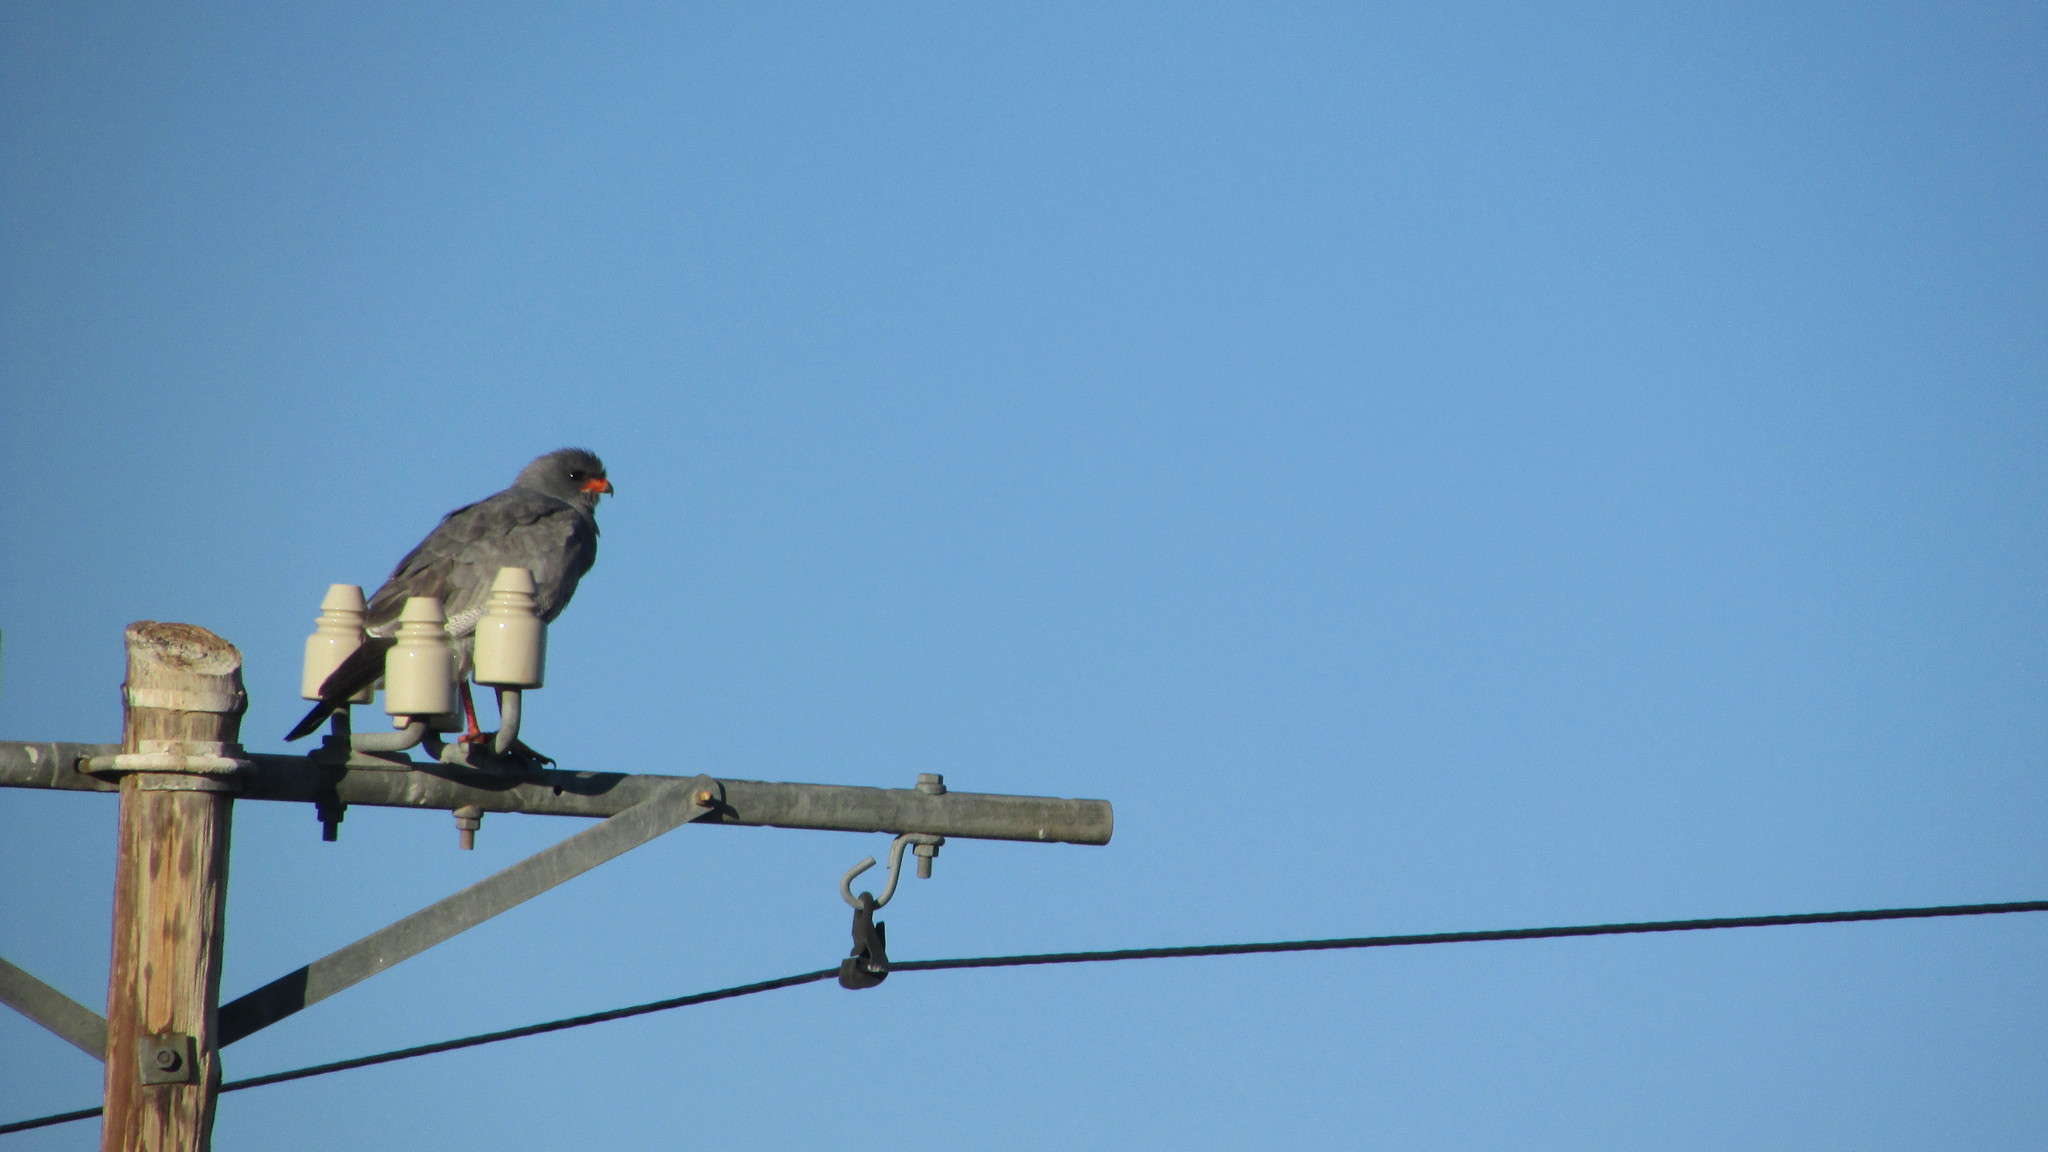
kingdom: Animalia
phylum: Chordata
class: Aves
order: Accipitriformes
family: Accipitridae
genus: Melierax
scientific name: Melierax canorus
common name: Pale chanting-goshawk
